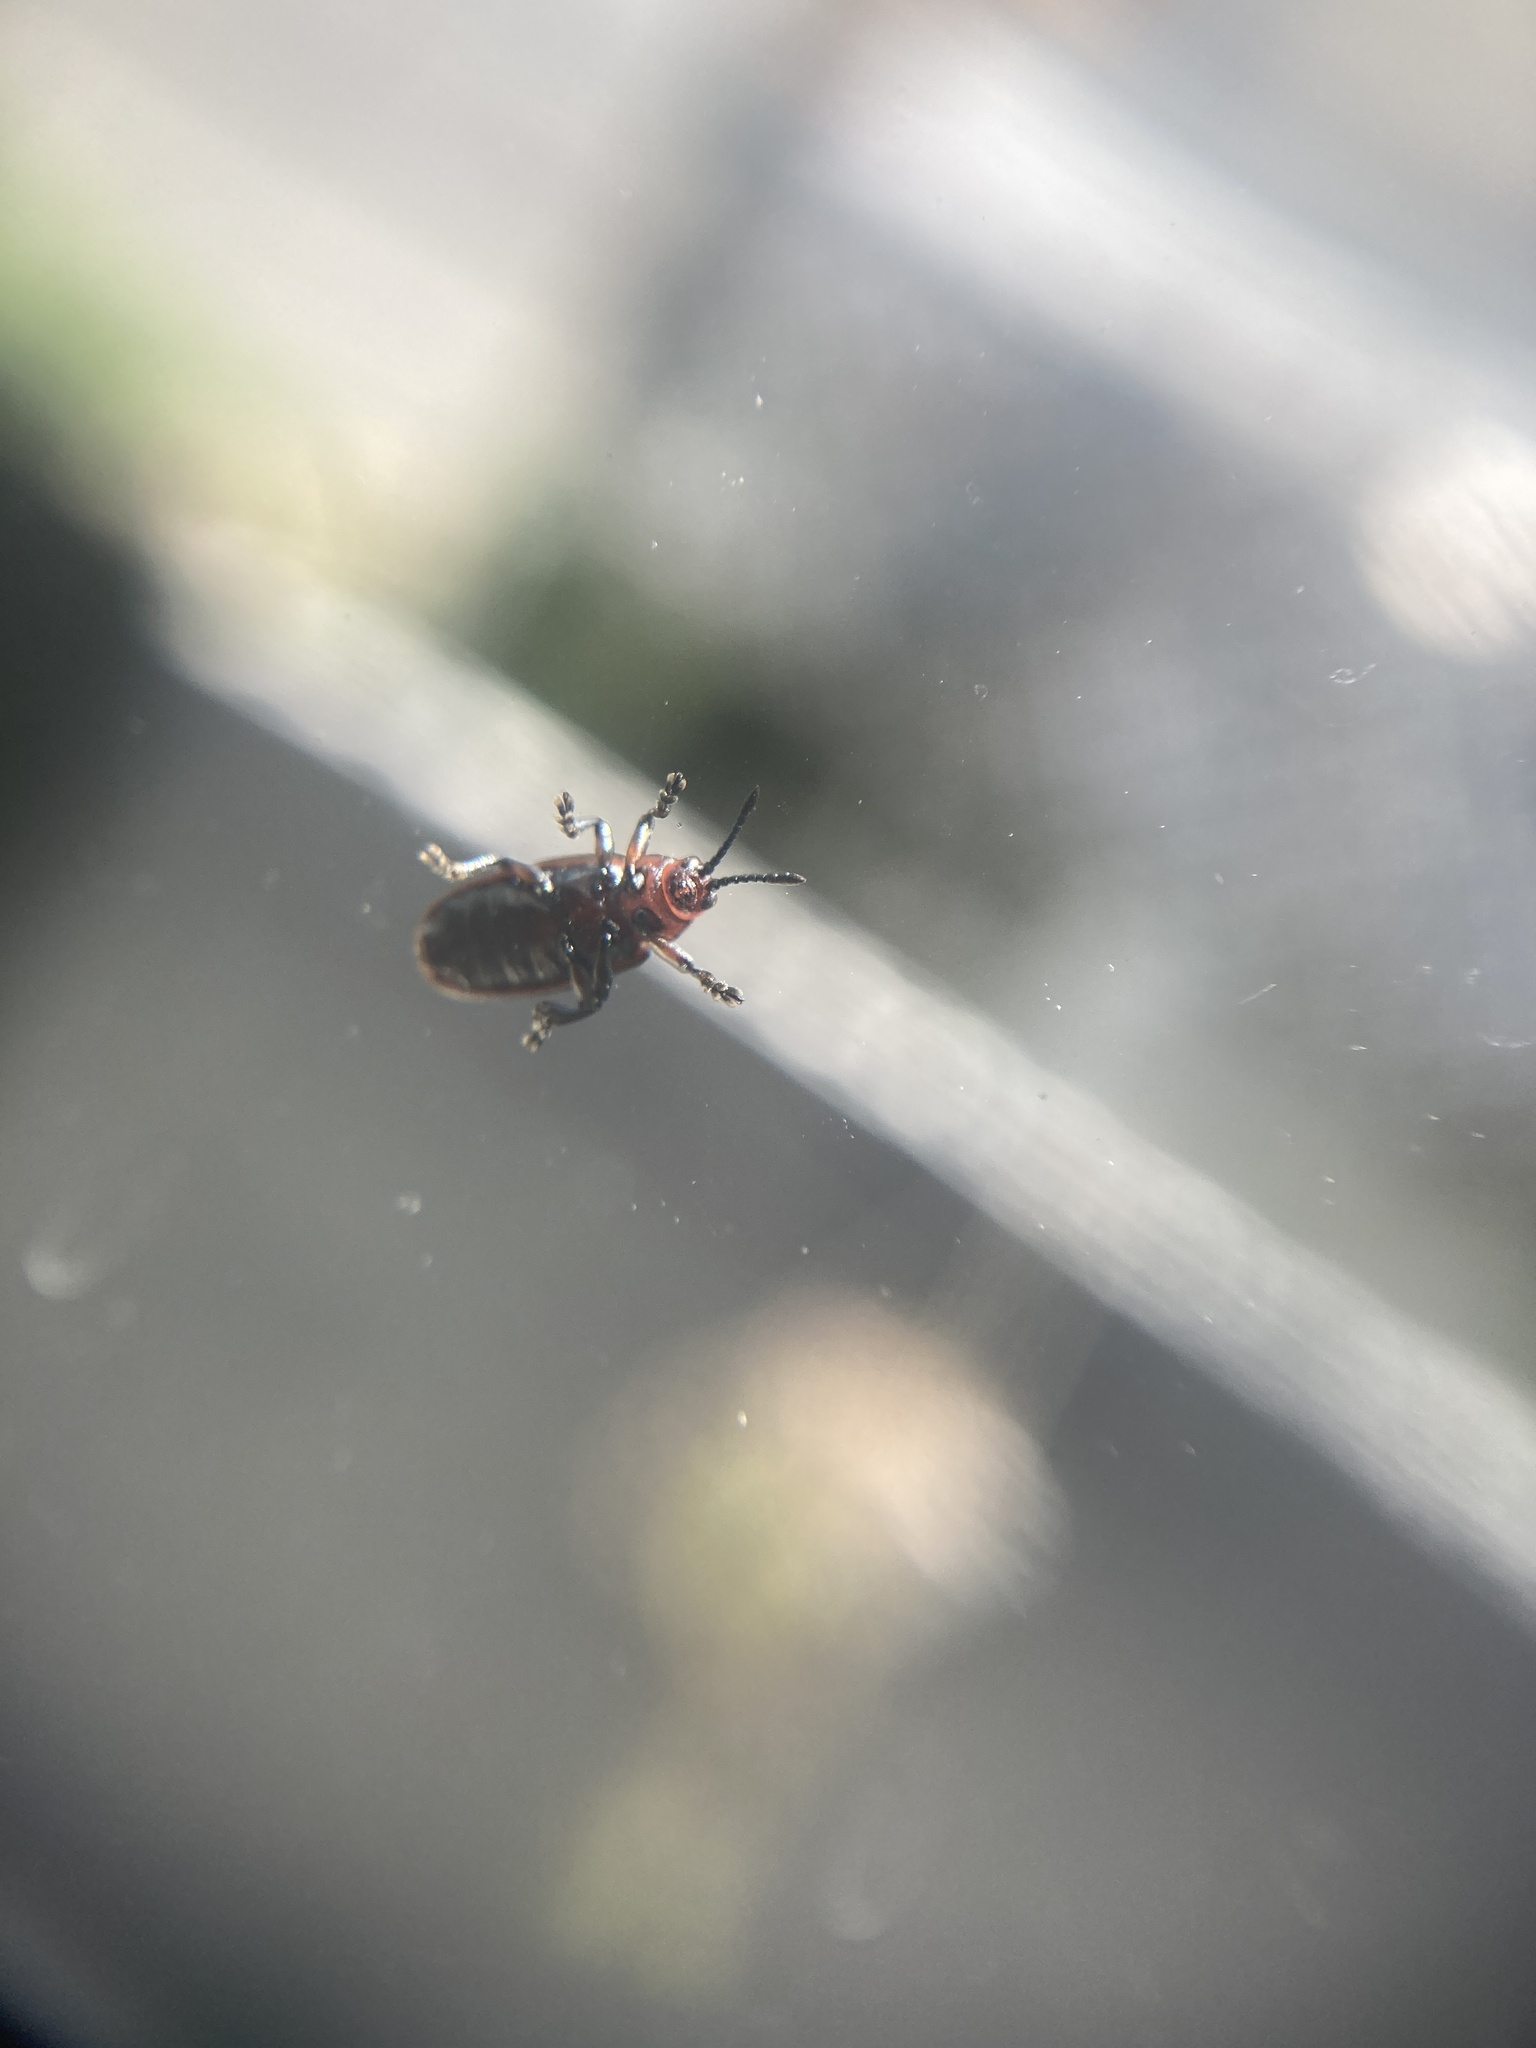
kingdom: Animalia
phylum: Arthropoda
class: Insecta
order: Coleoptera
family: Chrysomelidae
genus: Microrhopala
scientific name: Microrhopala vittata
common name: Goldenrod leaf miner beetle
